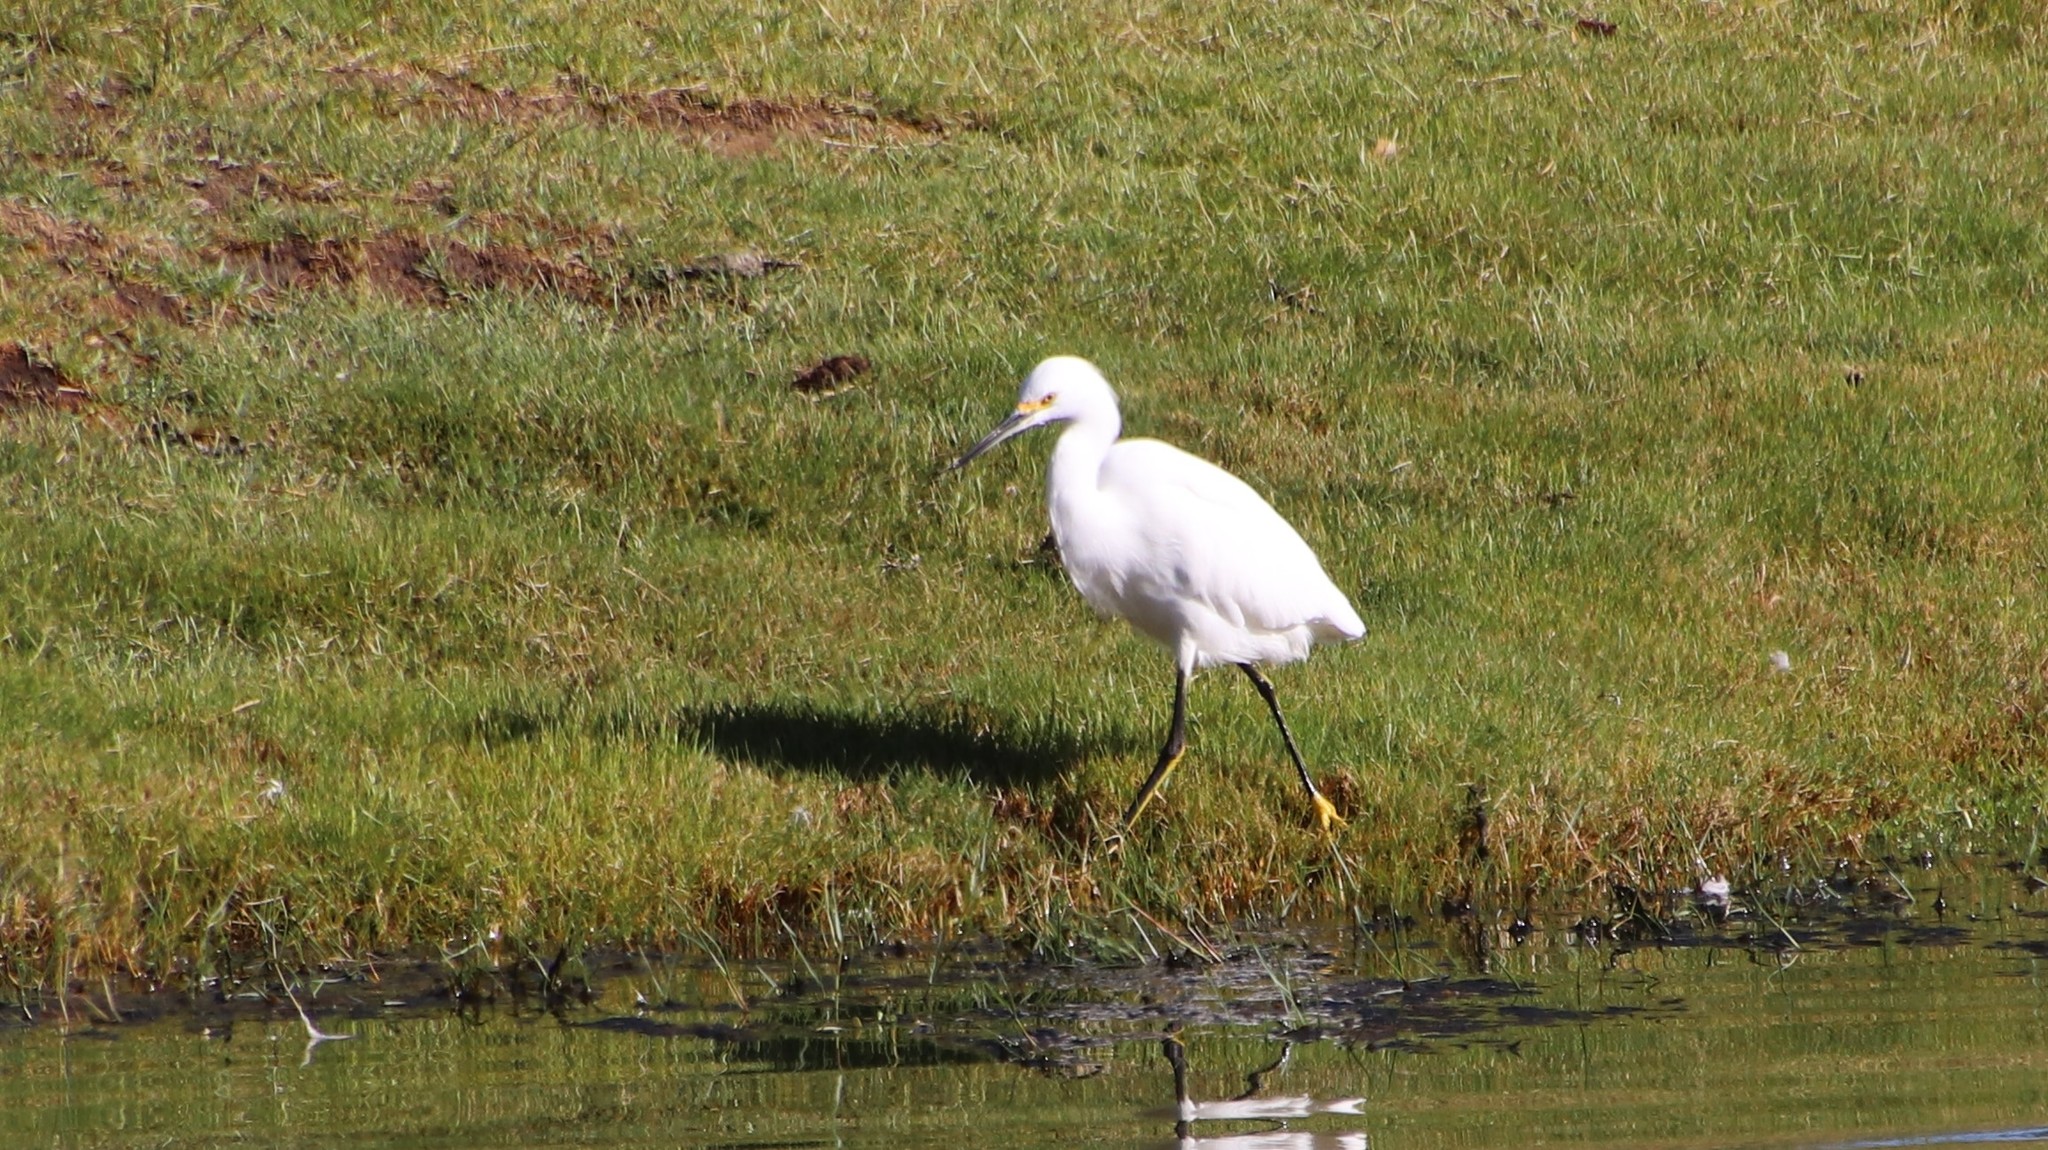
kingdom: Animalia
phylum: Chordata
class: Aves
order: Pelecaniformes
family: Ardeidae
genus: Egretta
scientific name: Egretta thula
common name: Snowy egret
